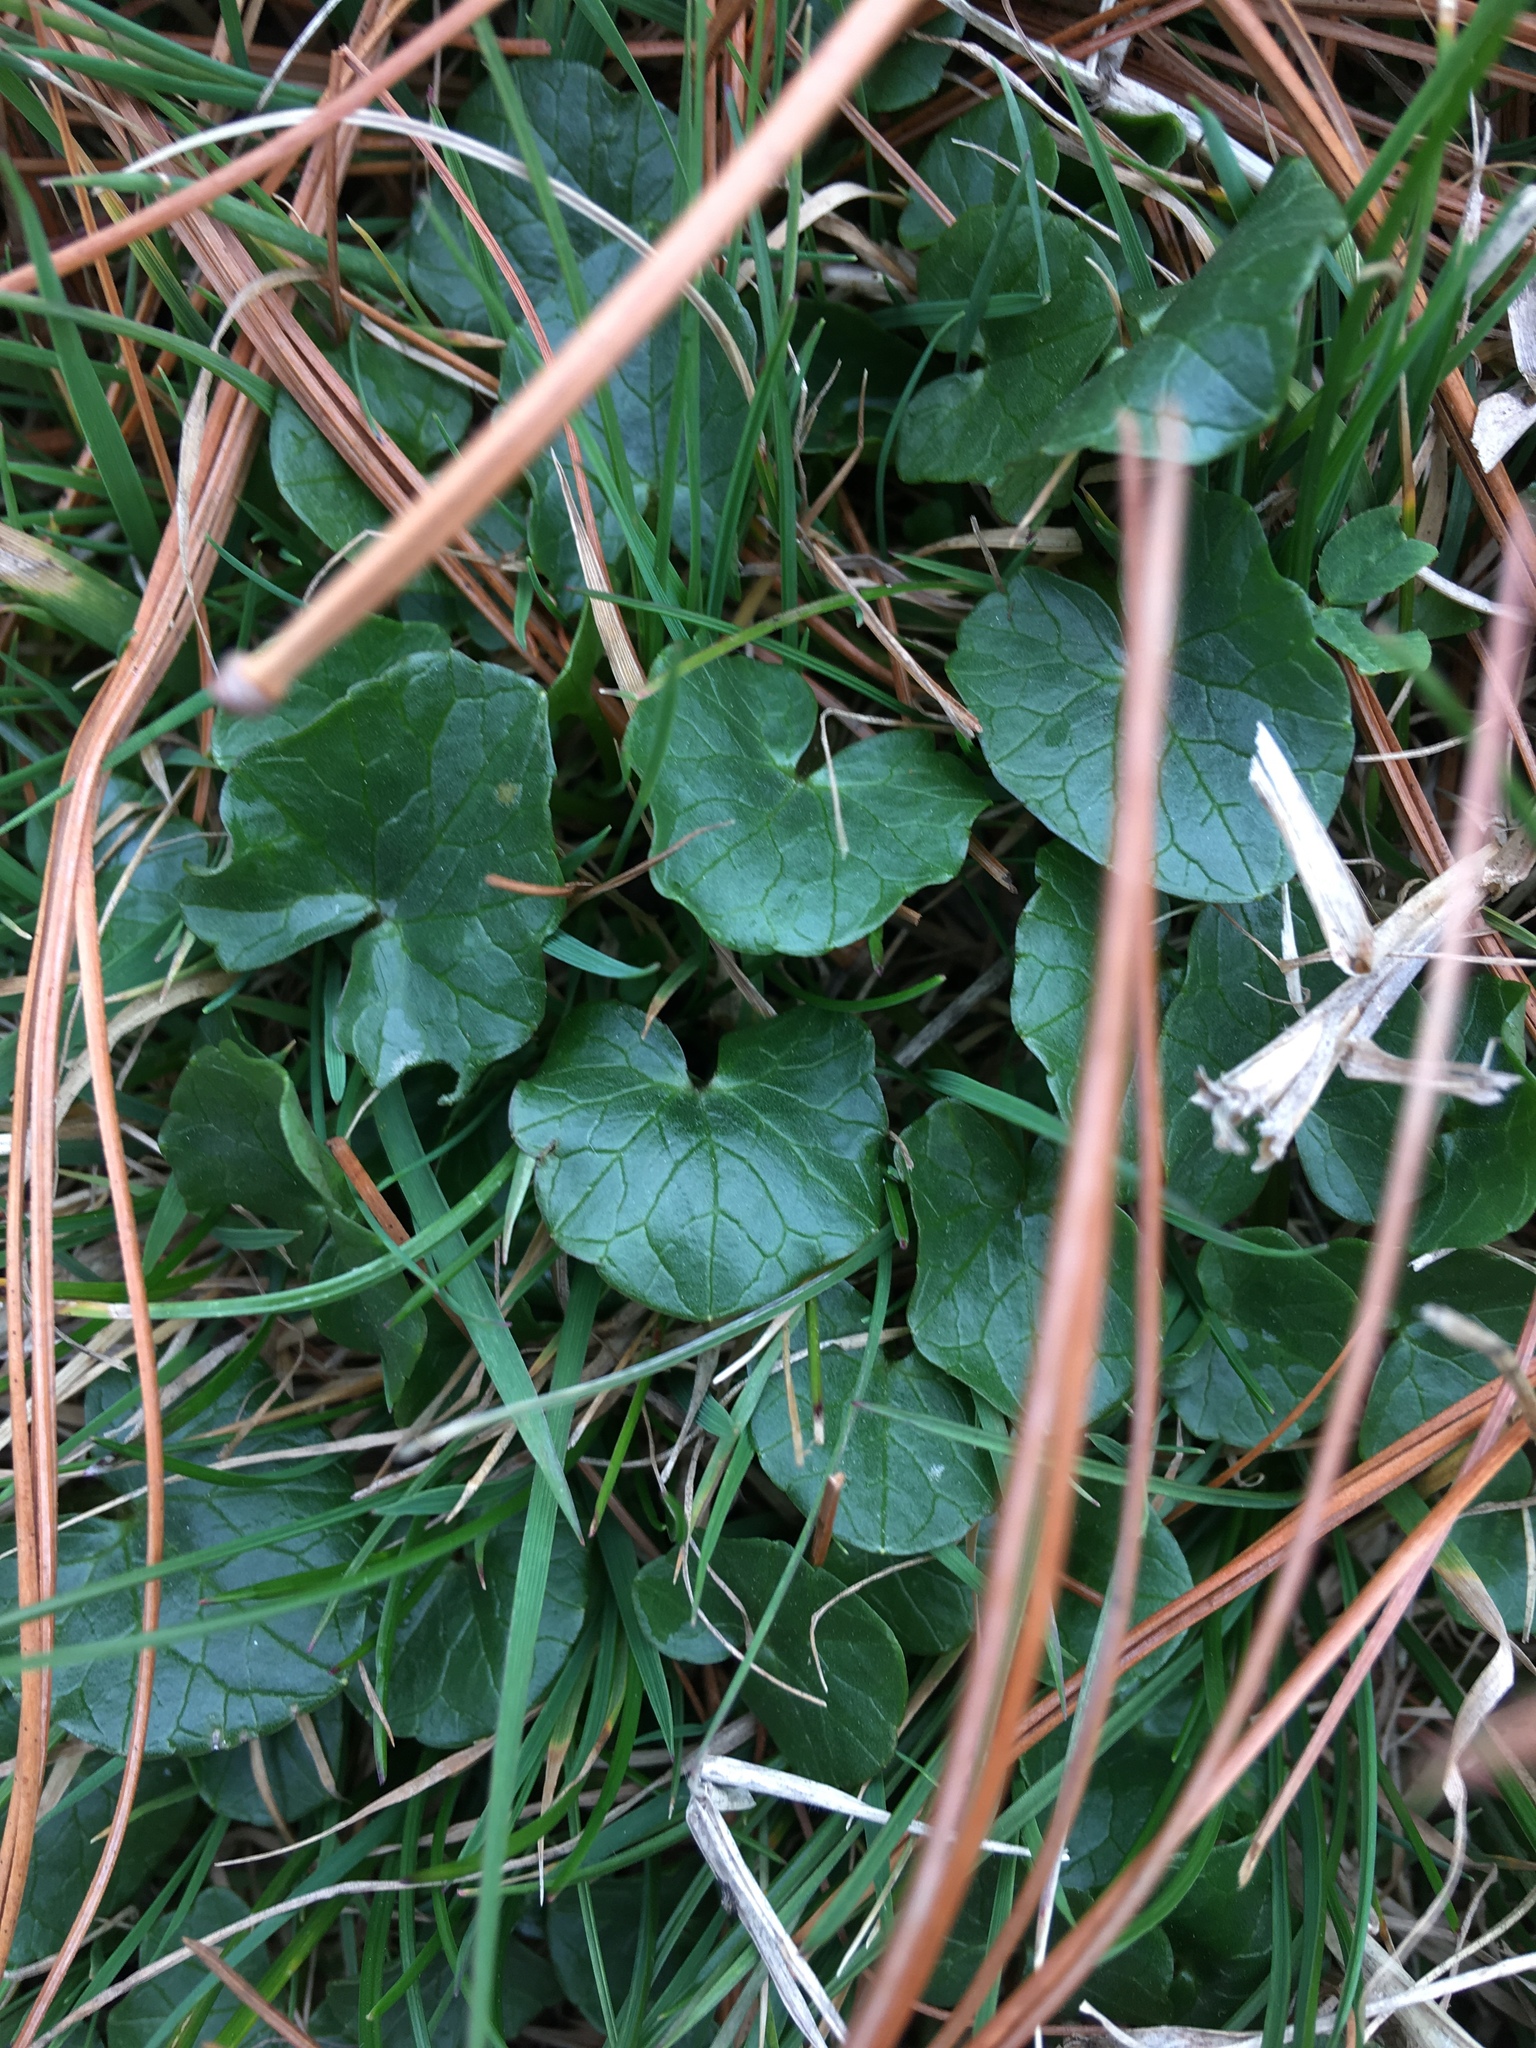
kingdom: Plantae
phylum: Tracheophyta
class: Magnoliopsida
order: Ranunculales
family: Ranunculaceae
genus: Ficaria
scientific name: Ficaria verna
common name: Lesser celandine
